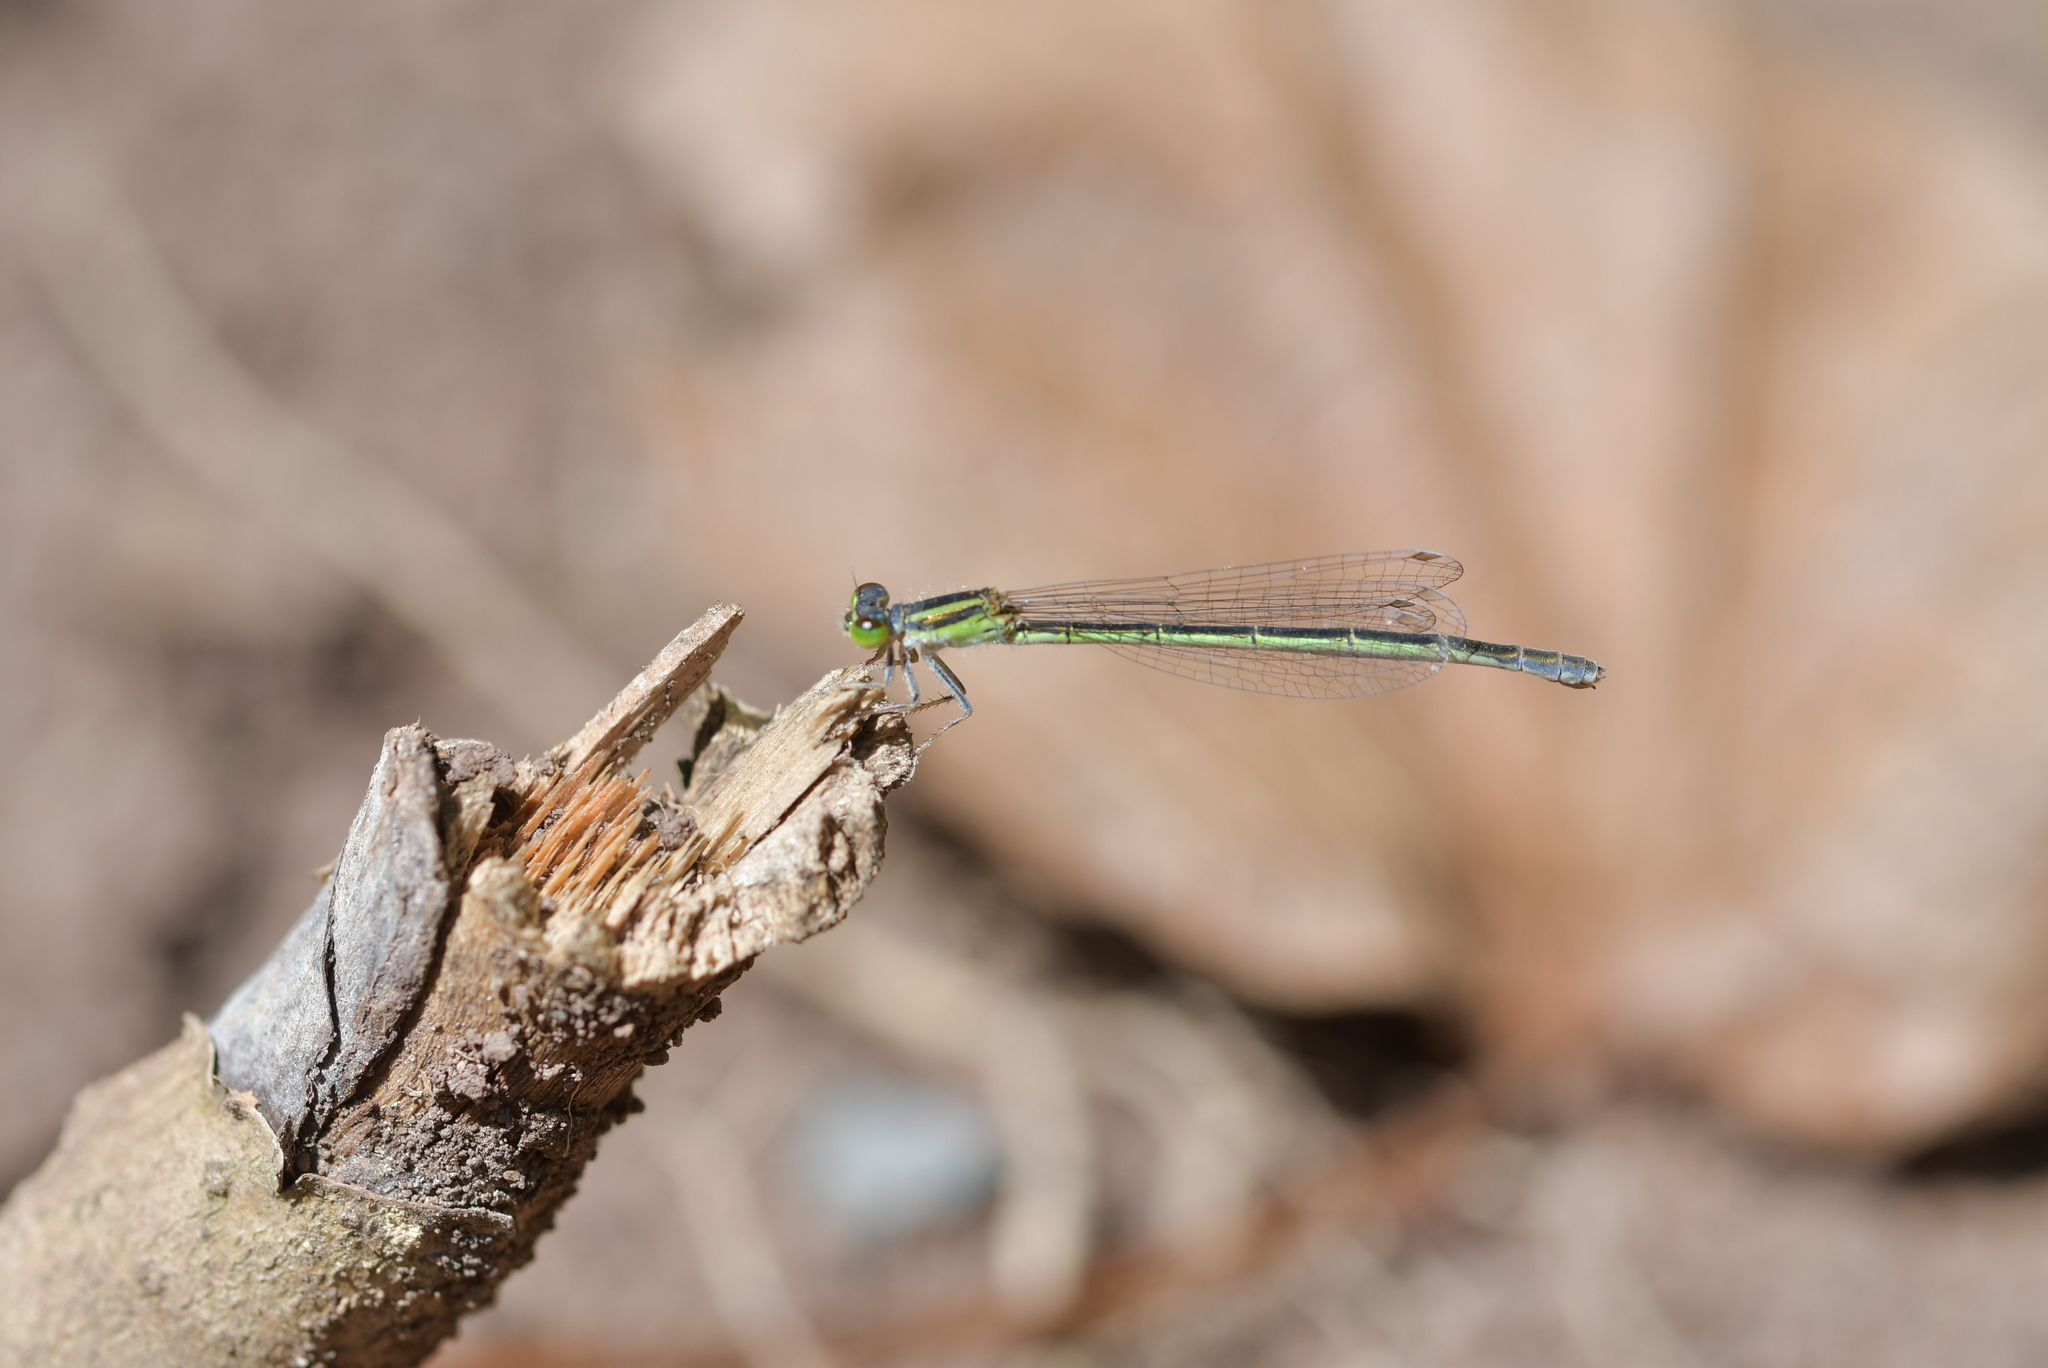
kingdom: Animalia
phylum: Arthropoda
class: Insecta
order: Odonata
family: Coenagrionidae
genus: Ischnura
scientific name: Ischnura aurora
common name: Gossamer damselfly
